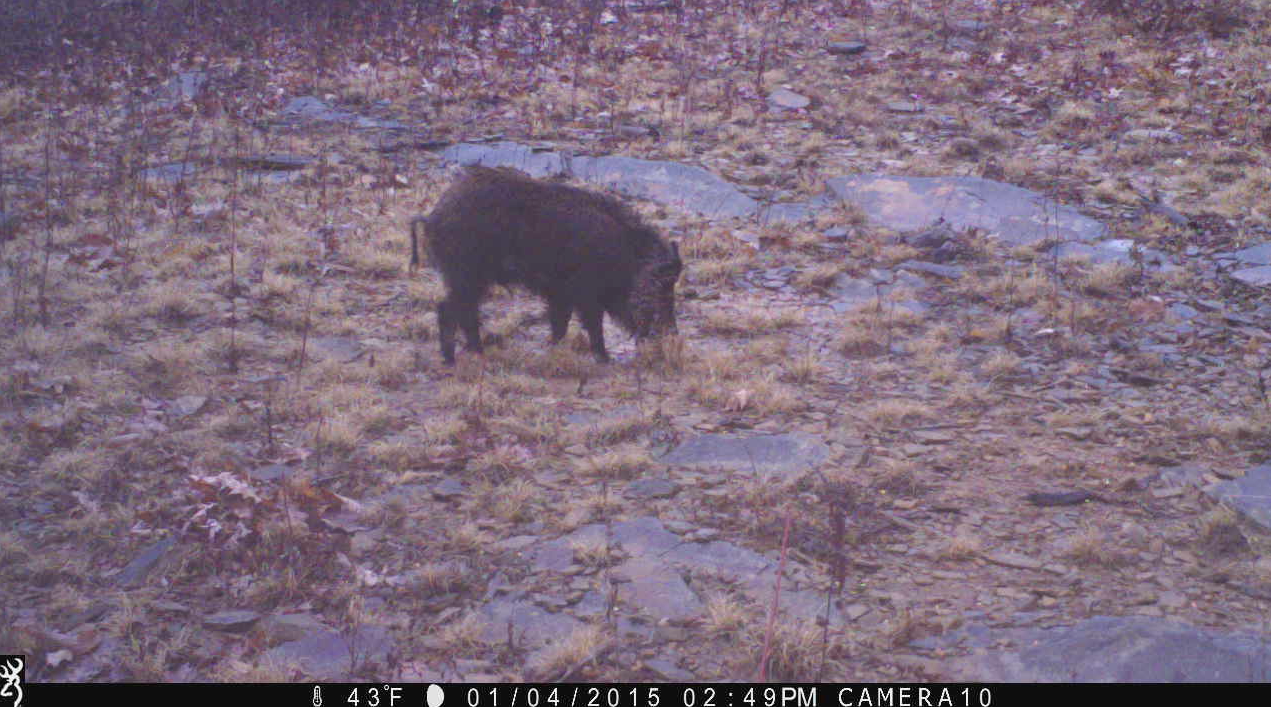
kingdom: Animalia
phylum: Chordata
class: Mammalia
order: Artiodactyla
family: Suidae
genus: Sus
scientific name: Sus scrofa
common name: Wild boar
